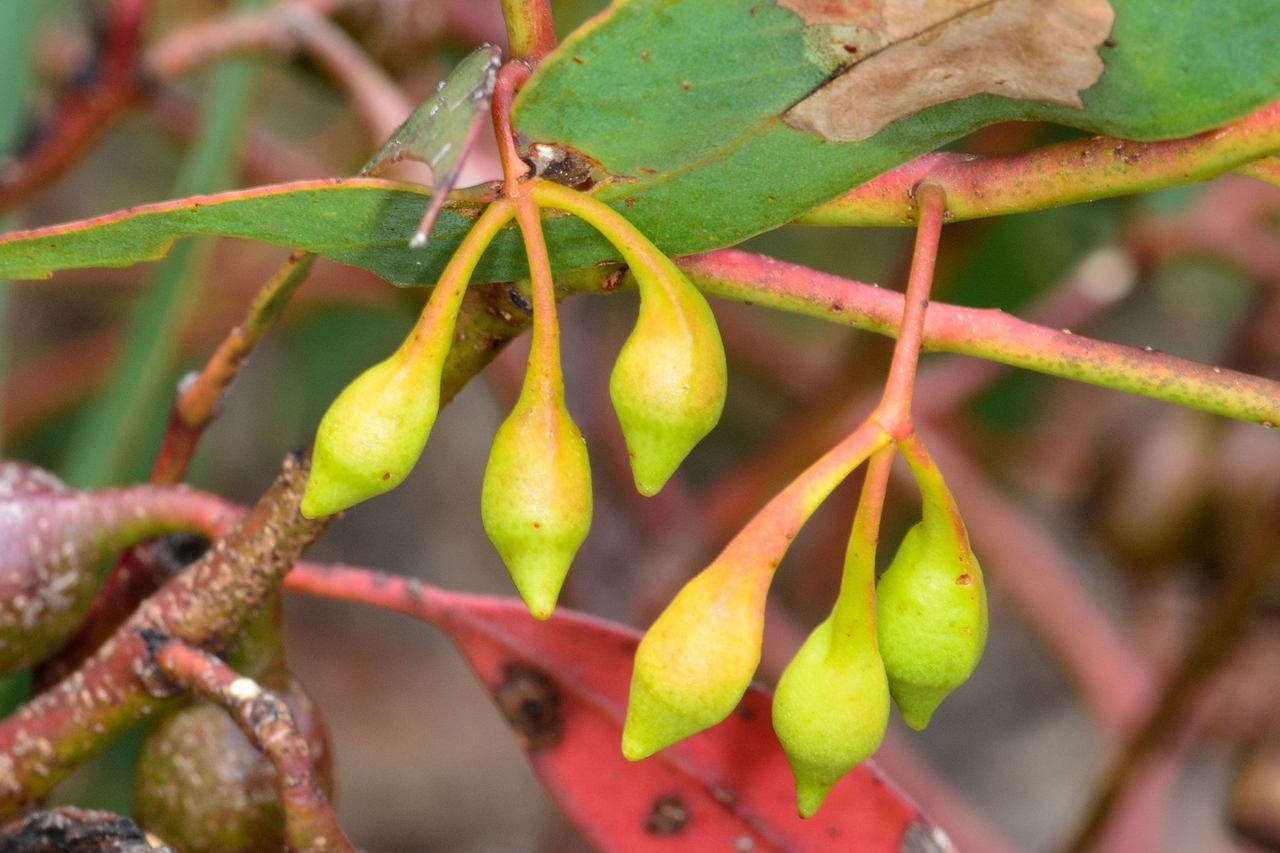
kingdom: Plantae
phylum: Tracheophyta
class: Magnoliopsida
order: Myrtales
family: Myrtaceae
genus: Eucalyptus
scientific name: Eucalyptus tricarpa
